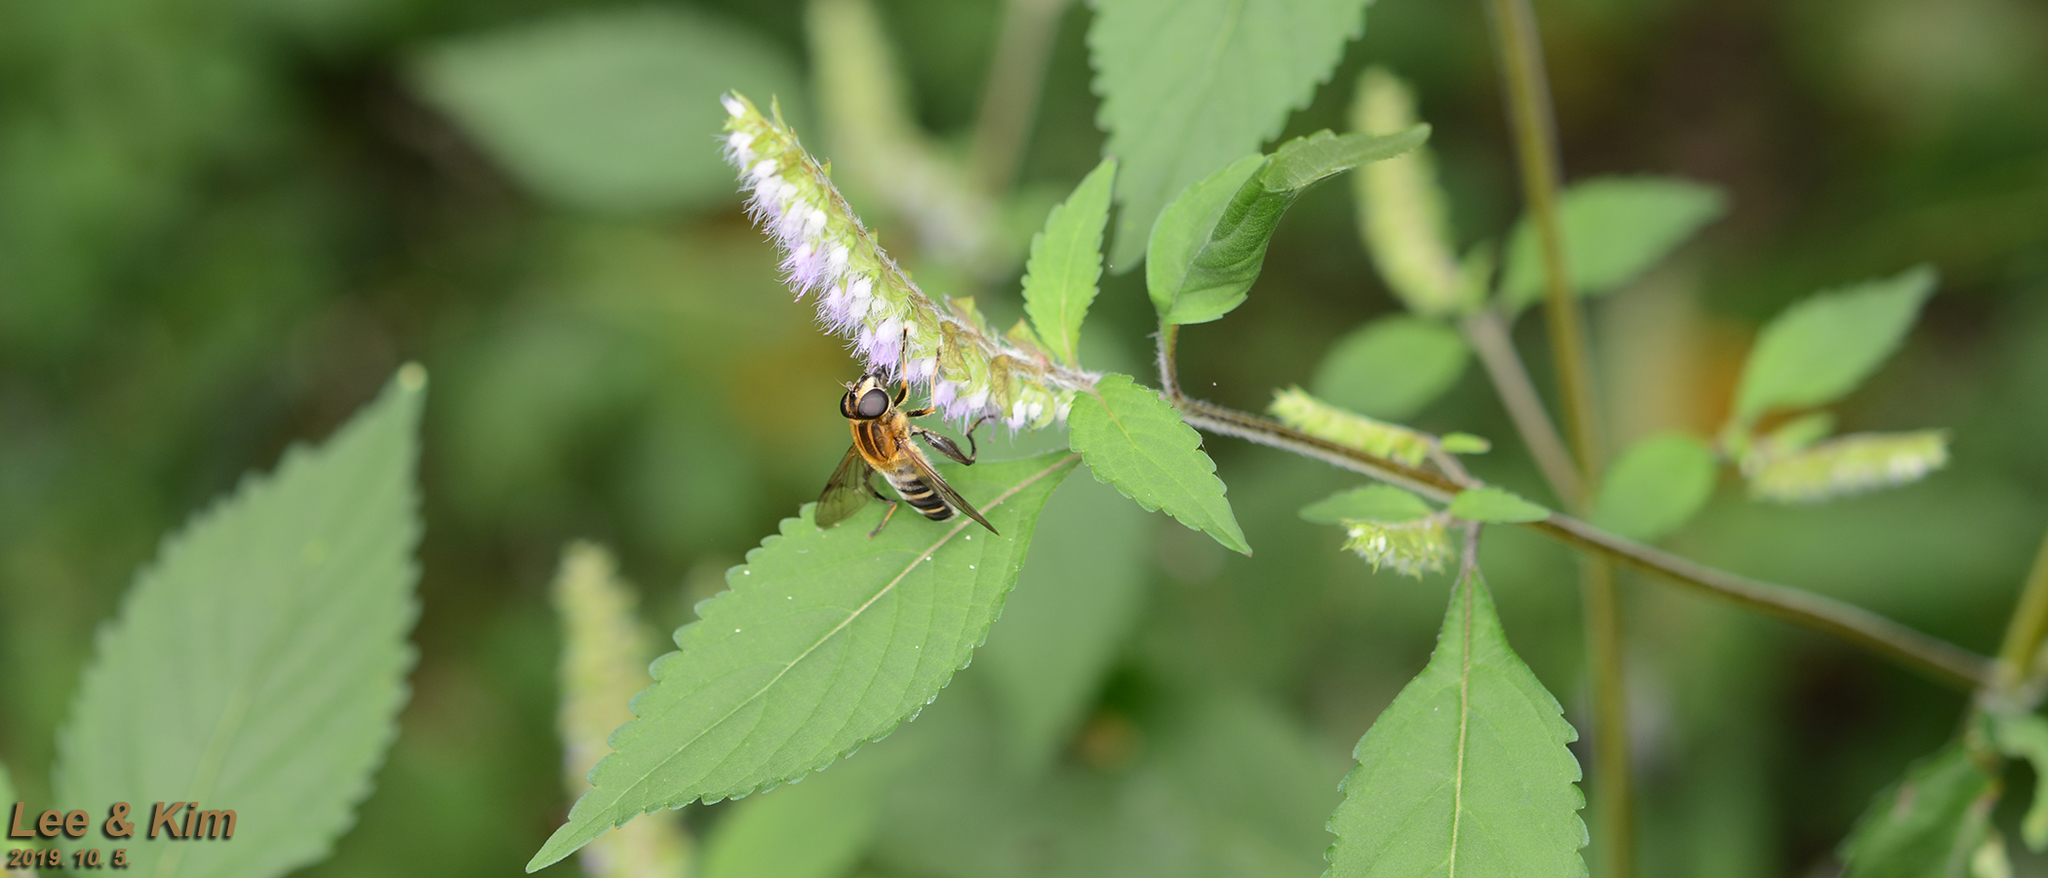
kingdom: Animalia
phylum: Arthropoda
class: Insecta
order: Diptera
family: Syrphidae
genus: Helophilus
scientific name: Helophilus eristaloideus
